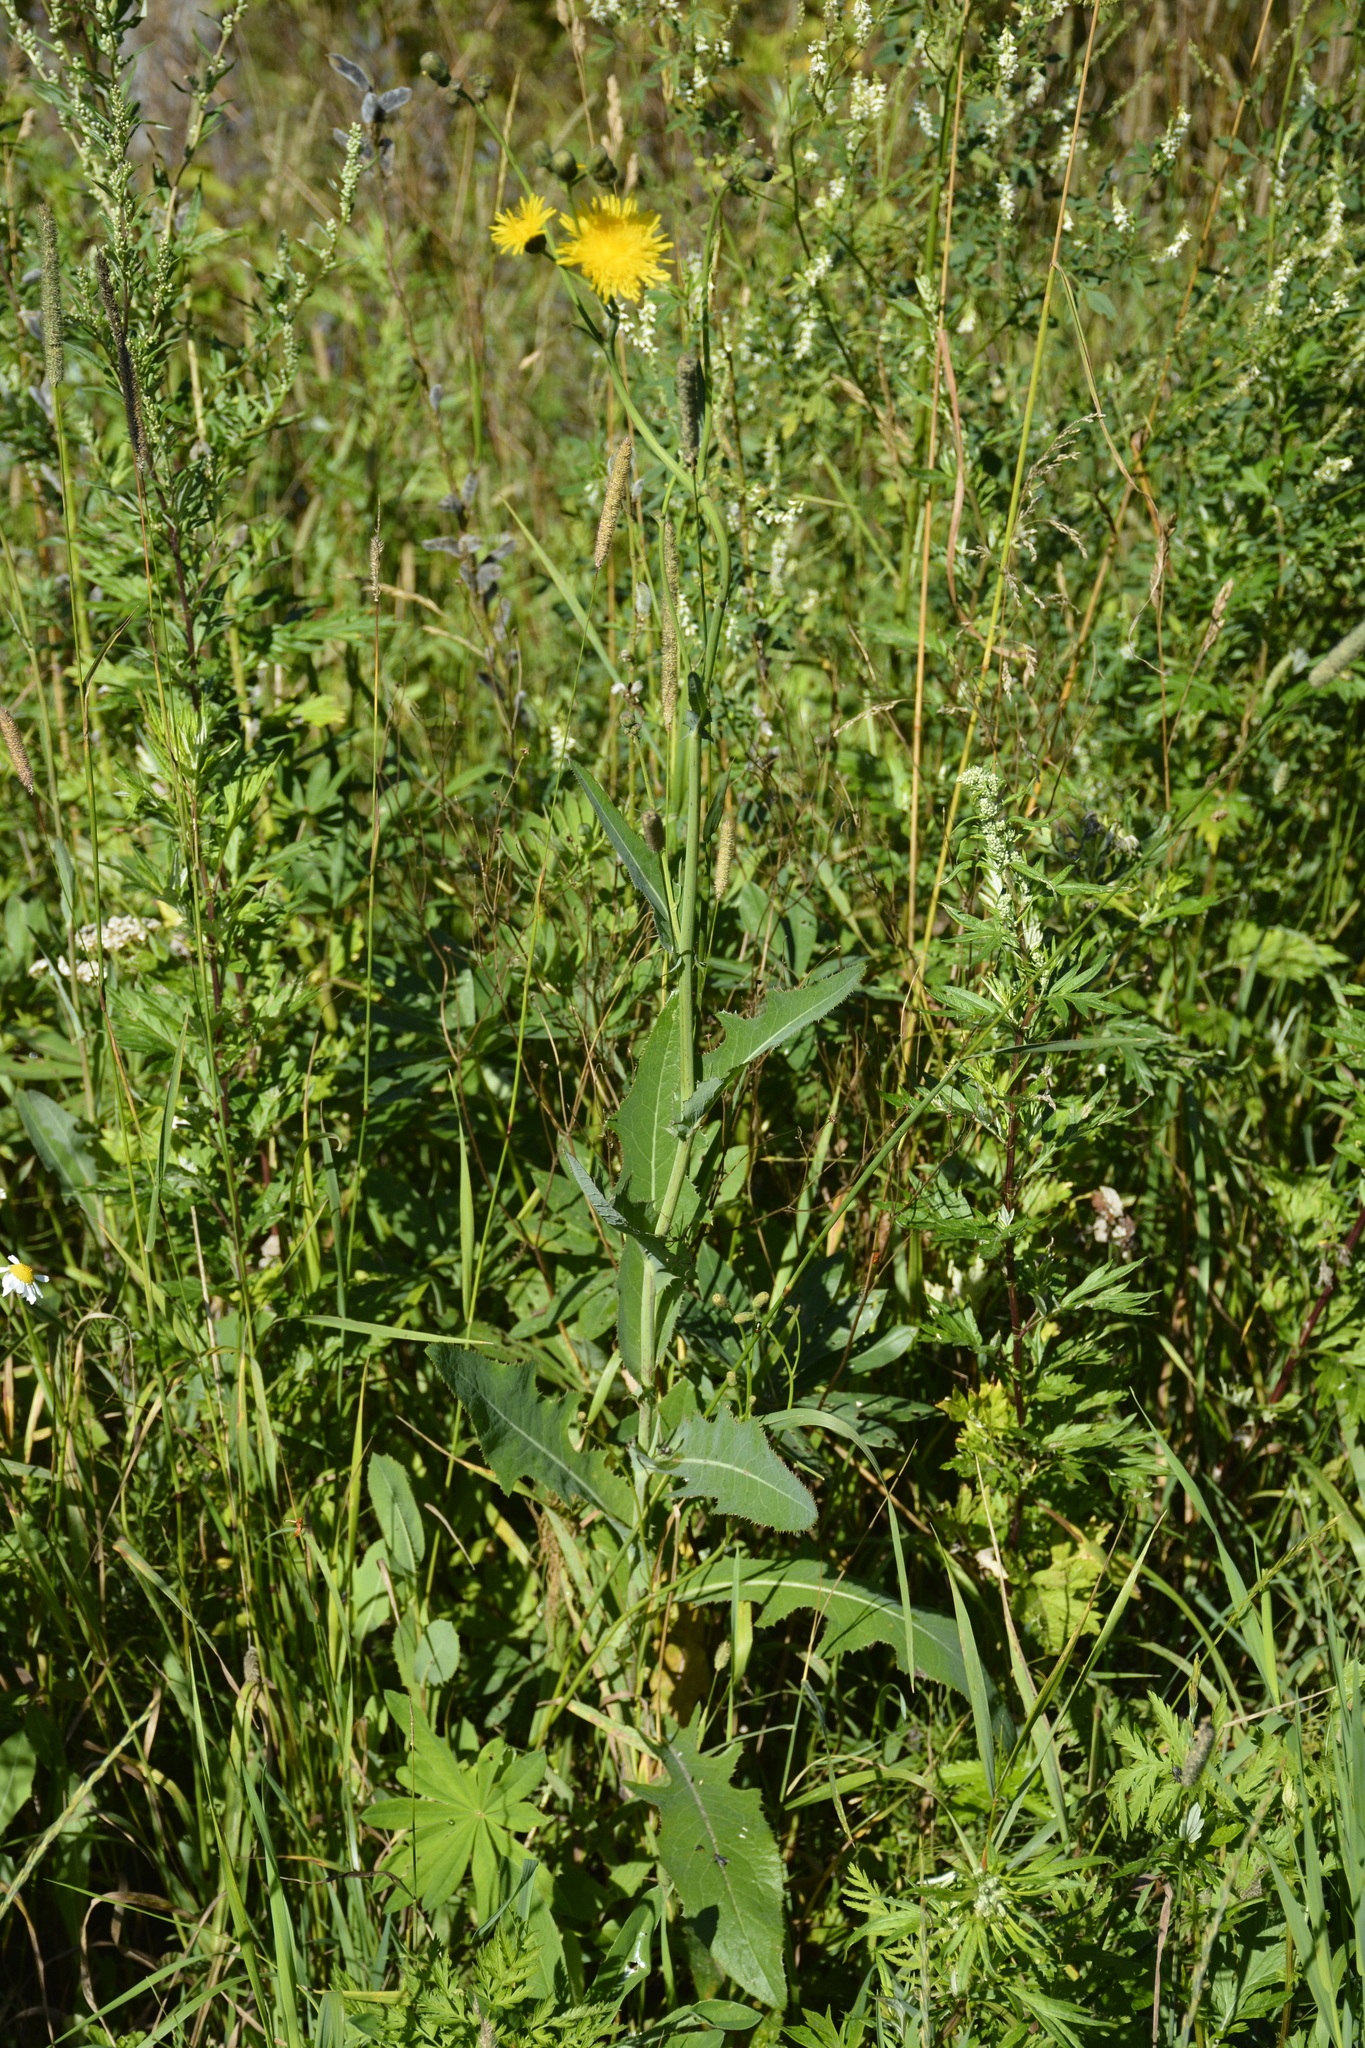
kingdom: Plantae
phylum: Tracheophyta
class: Magnoliopsida
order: Asterales
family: Asteraceae
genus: Sonchus
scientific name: Sonchus arvensis
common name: Perennial sow-thistle
